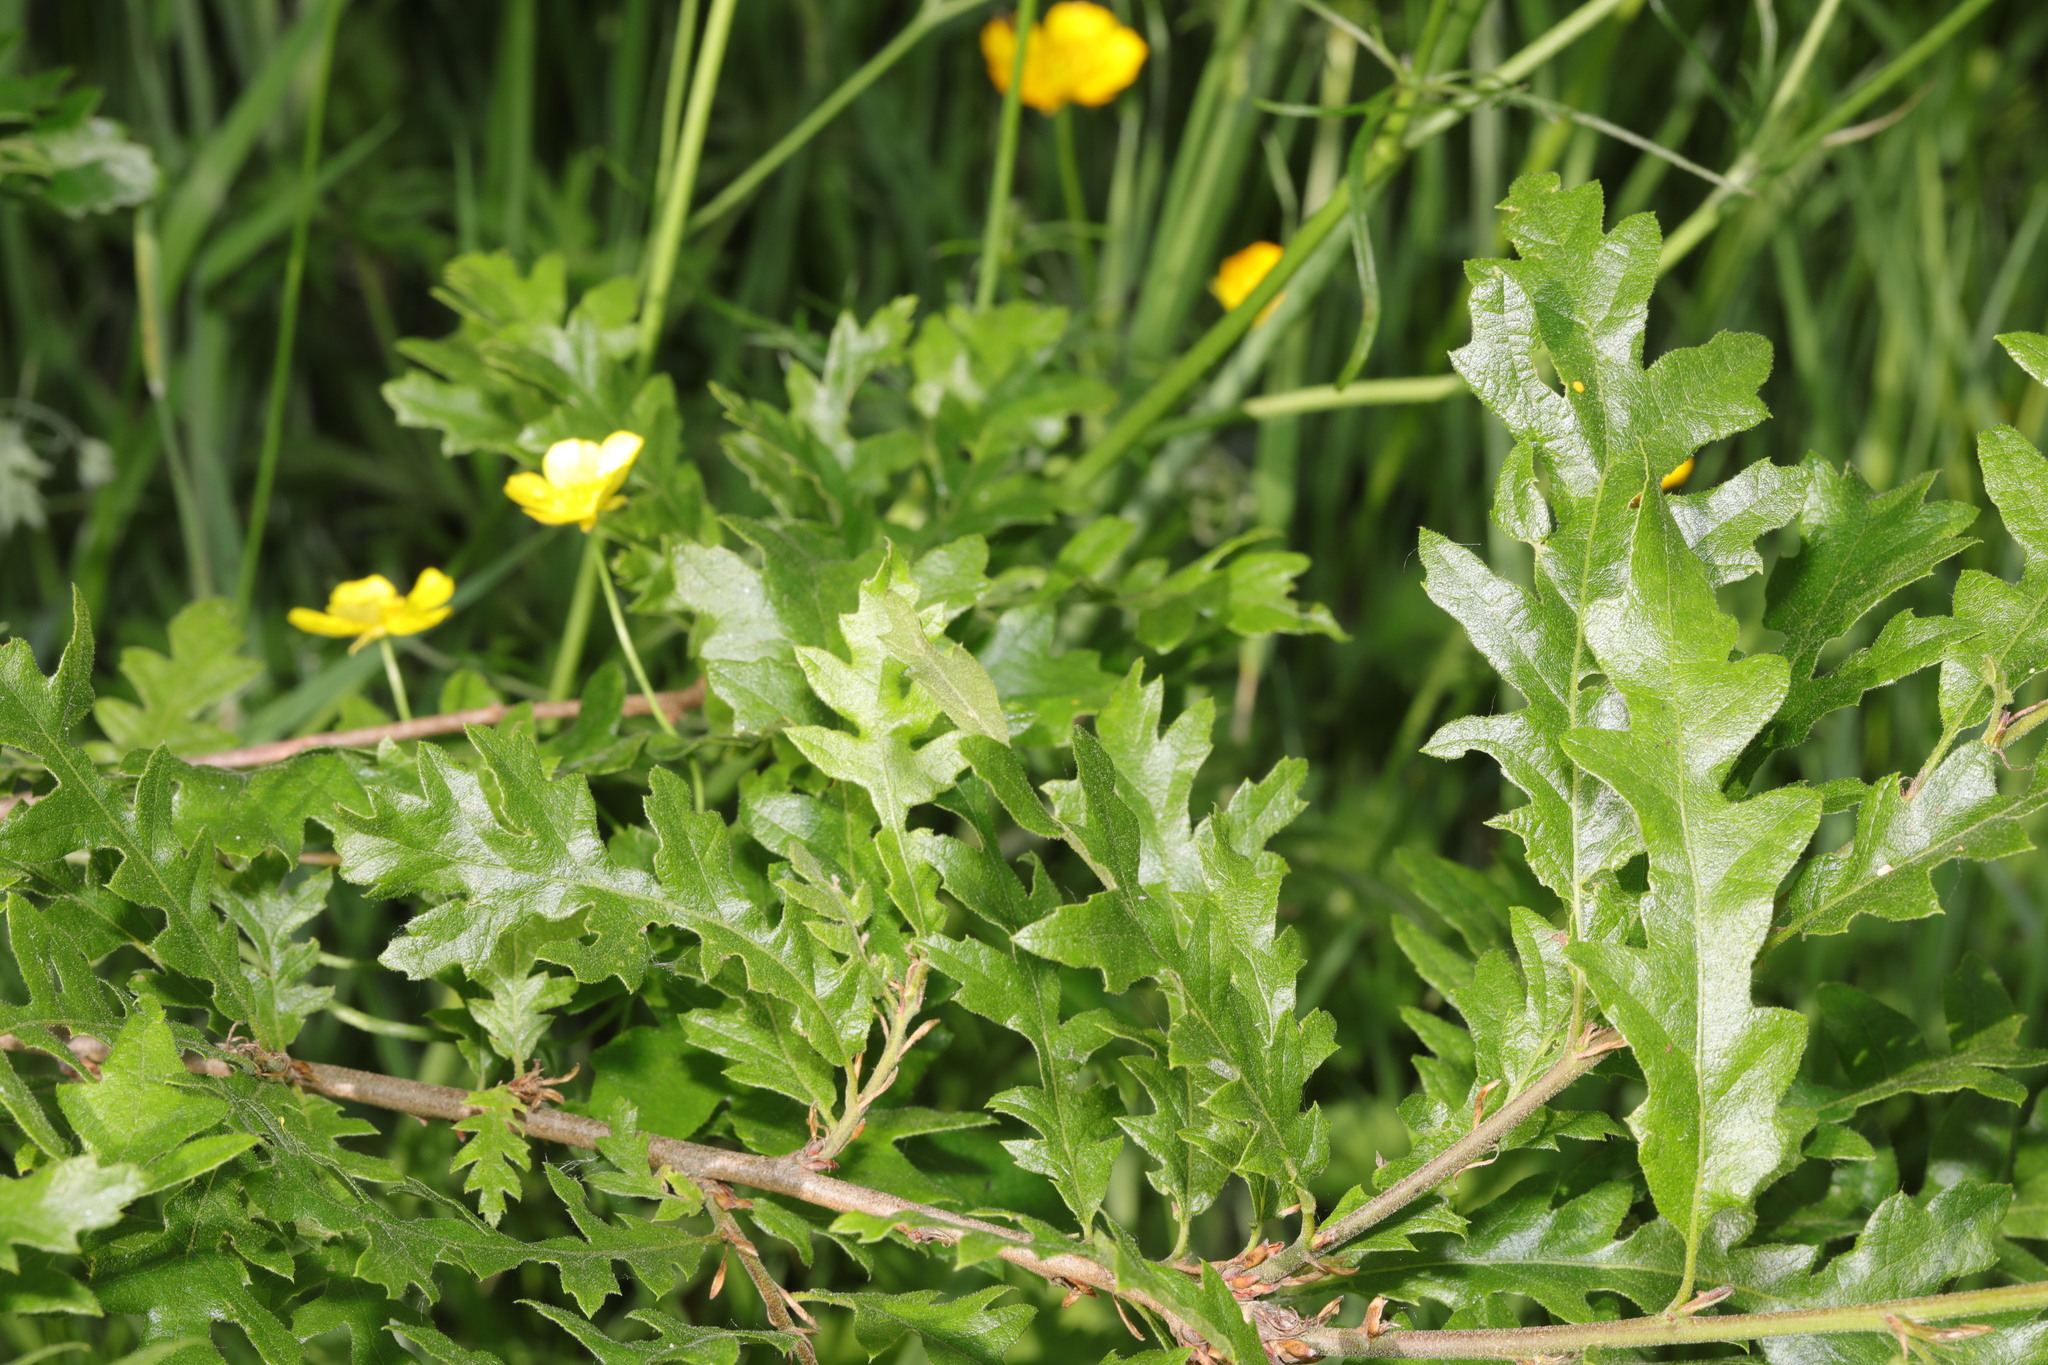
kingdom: Plantae
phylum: Tracheophyta
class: Magnoliopsida
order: Fagales
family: Fagaceae
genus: Quercus
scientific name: Quercus cerris
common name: Turkey oak
